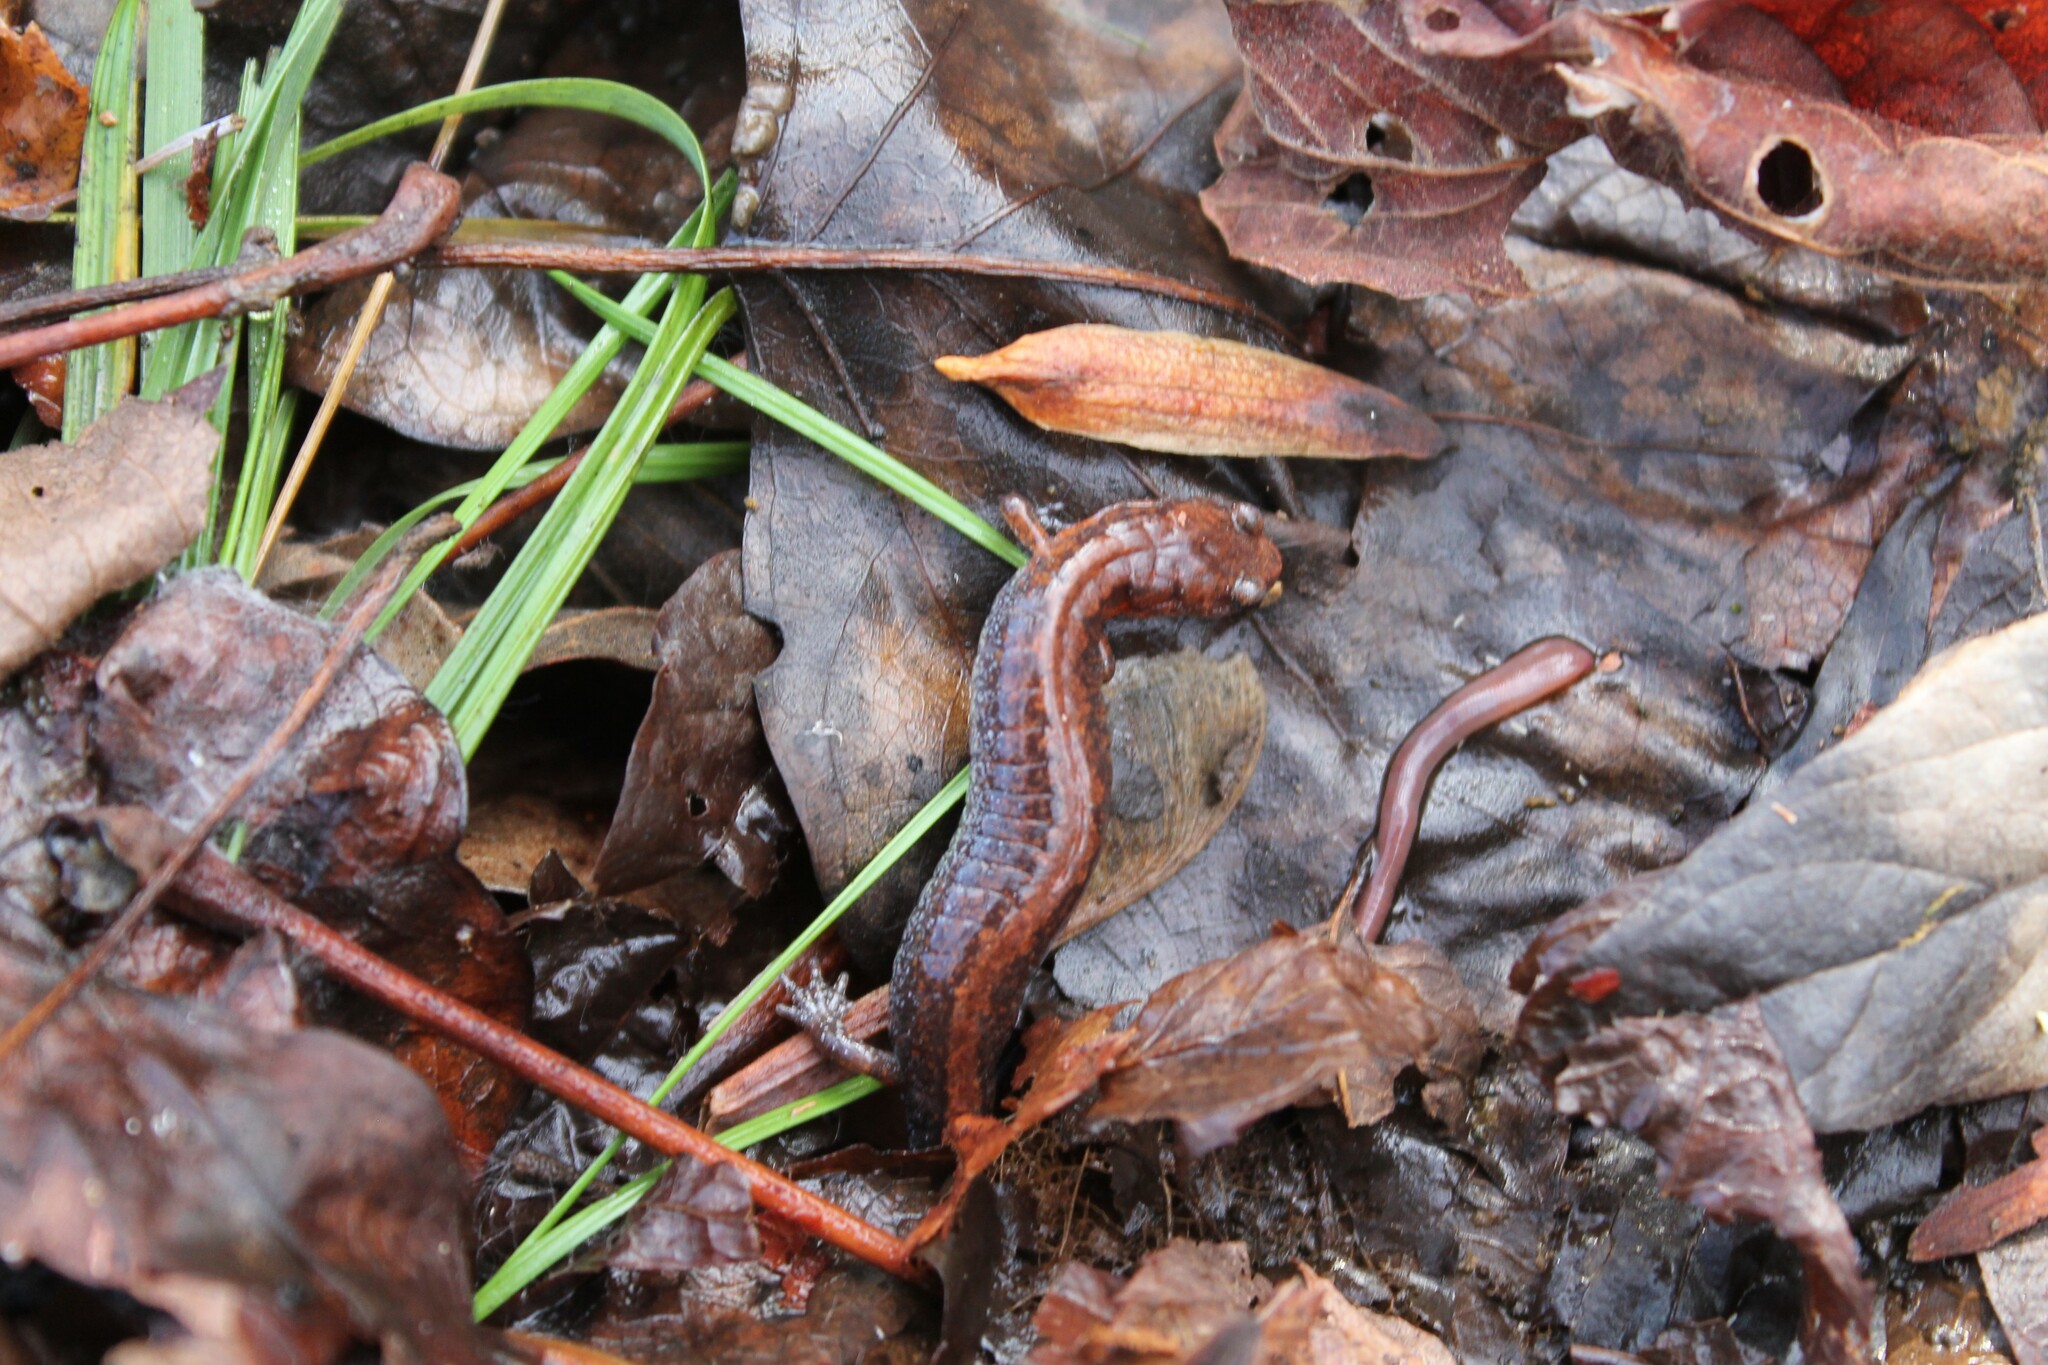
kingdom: Animalia
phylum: Chordata
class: Amphibia
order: Caudata
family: Plethodontidae
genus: Plethodon
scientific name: Plethodon dorsalis
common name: Northern zigzag salamander
